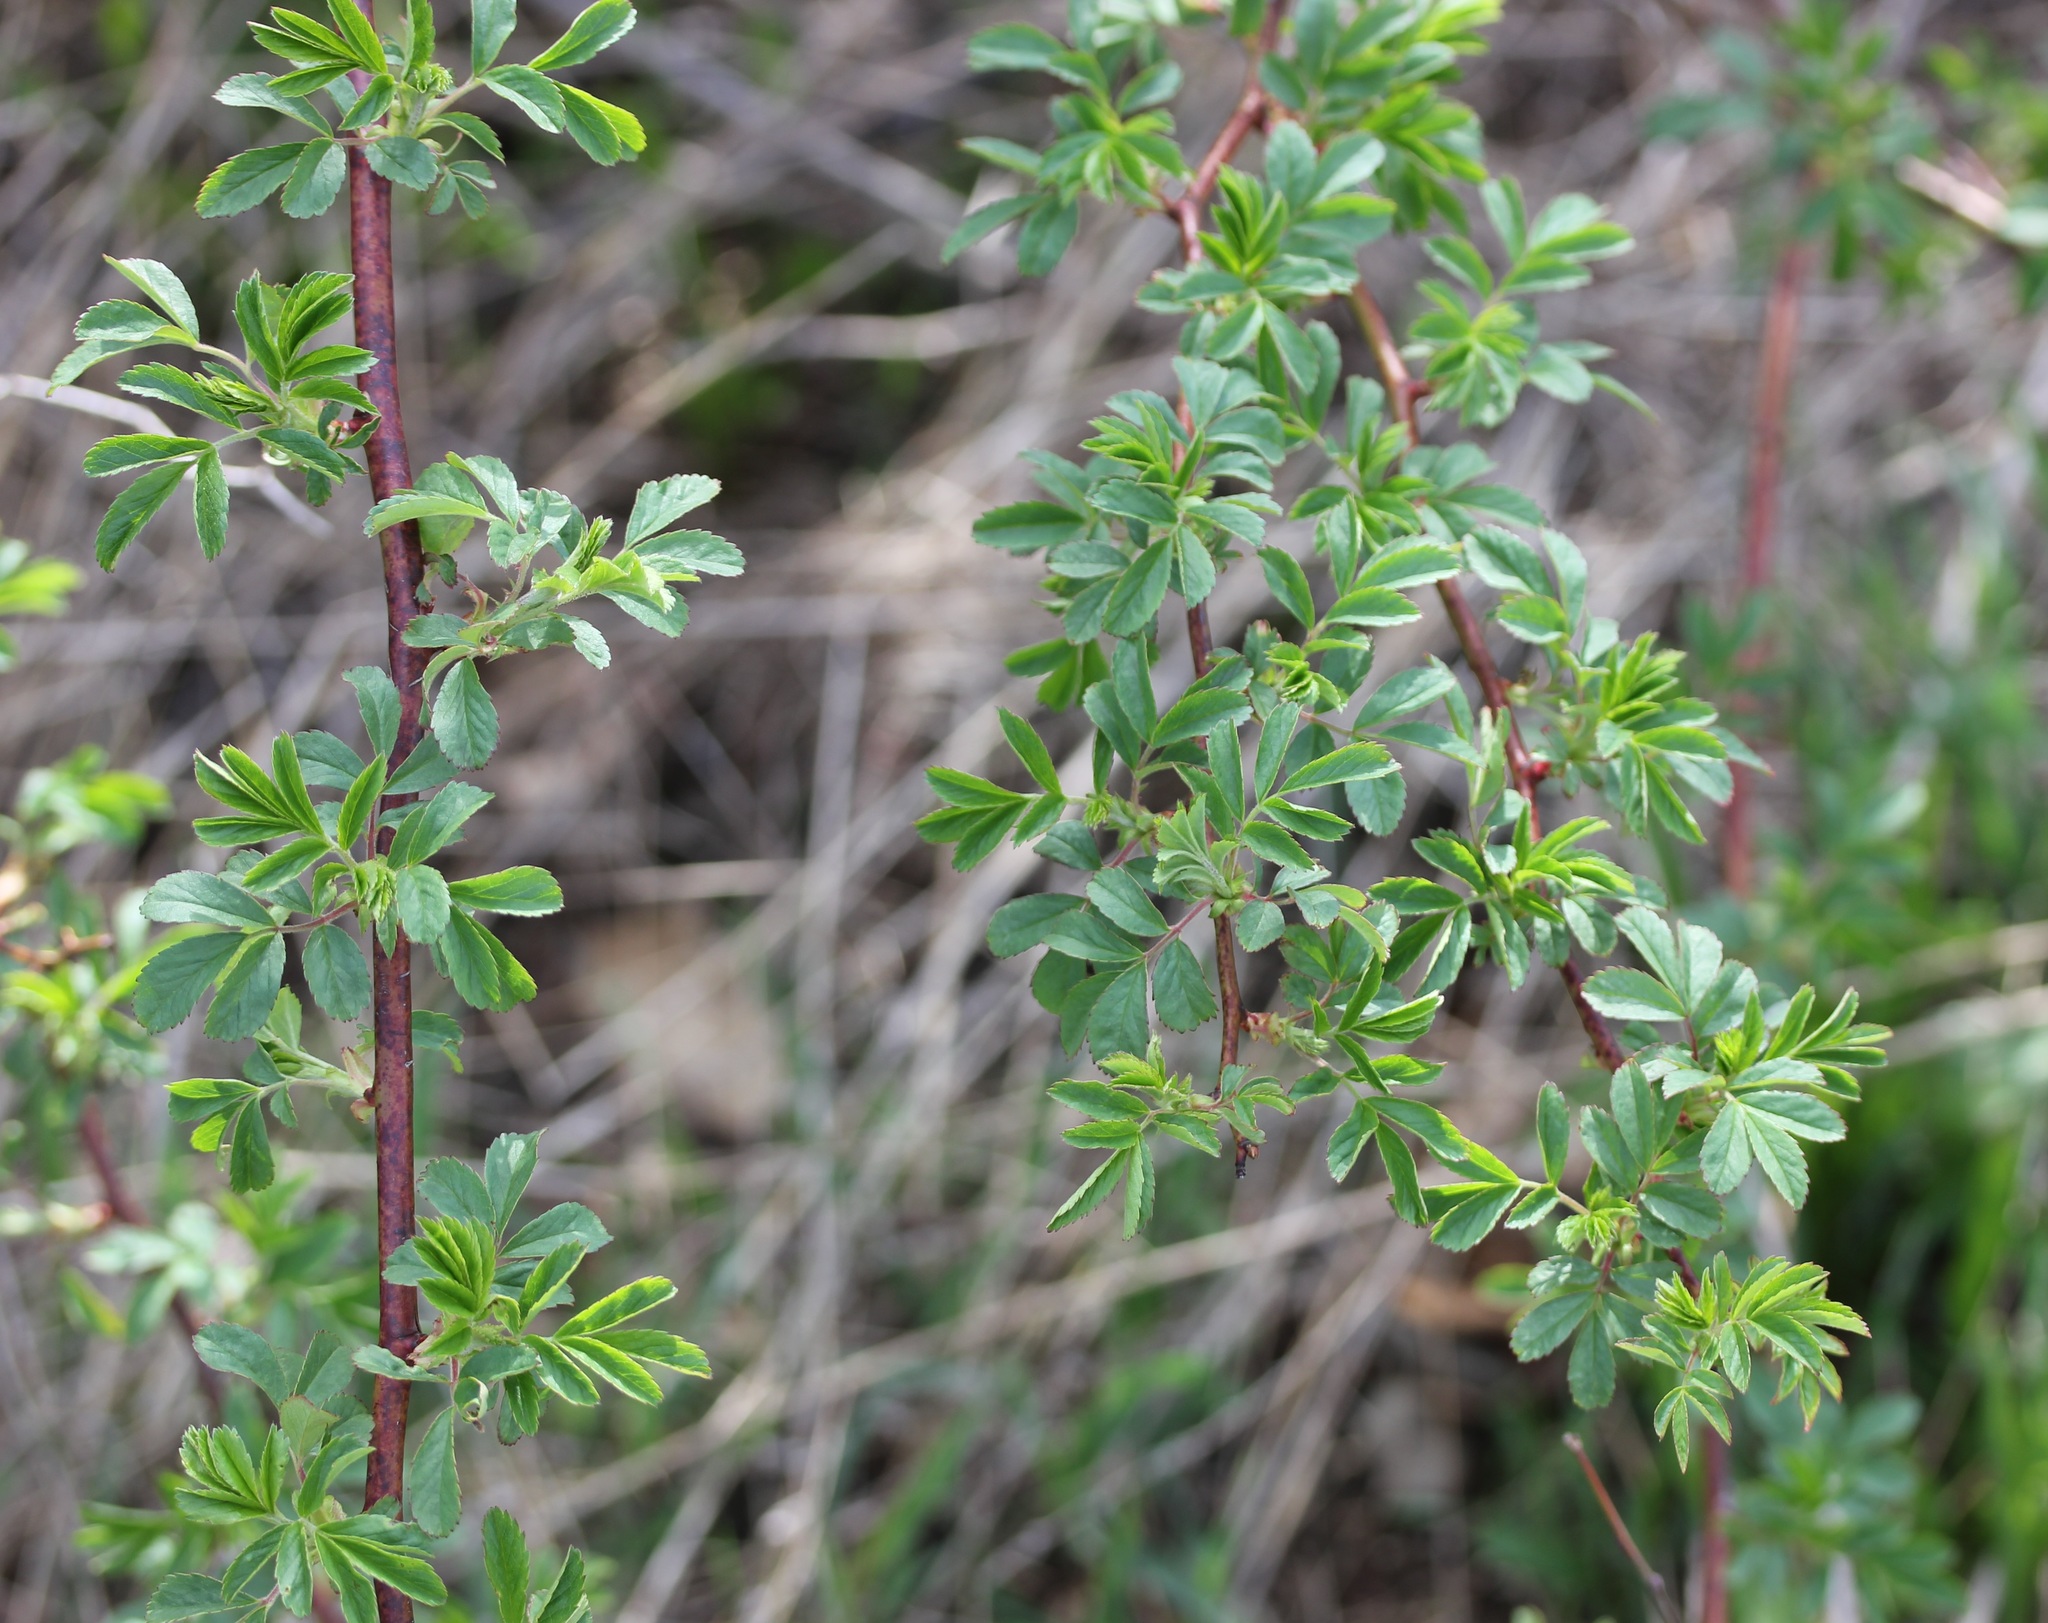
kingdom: Plantae
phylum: Tracheophyta
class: Magnoliopsida
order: Rosales
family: Rosaceae
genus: Rosa
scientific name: Rosa multiflora
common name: Multiflora rose
